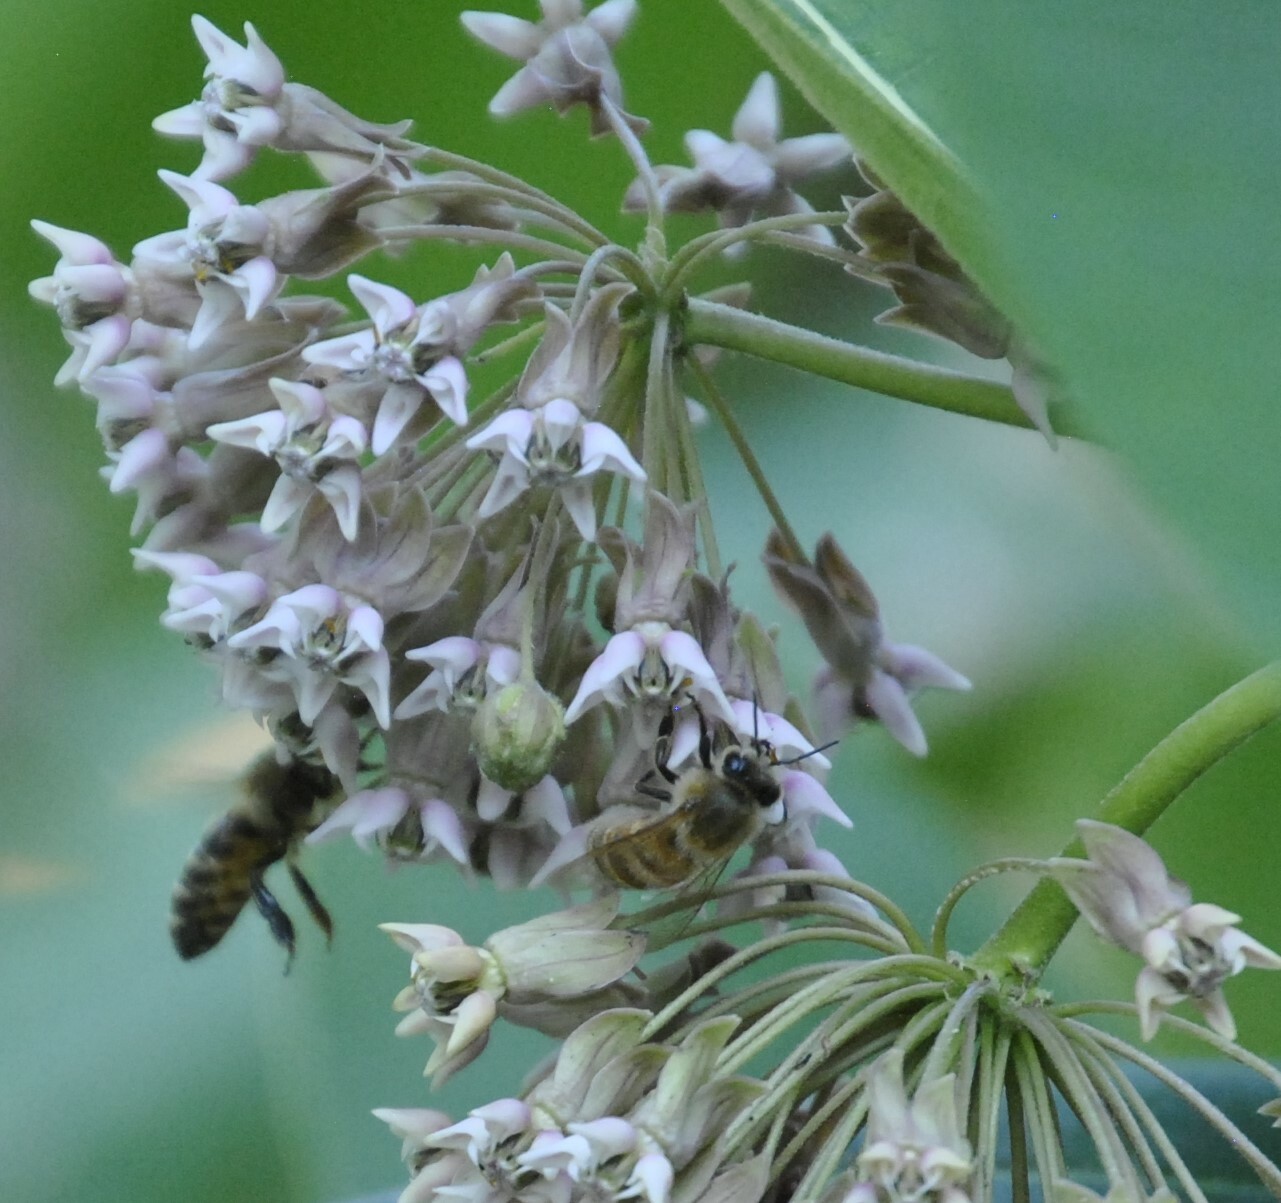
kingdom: Animalia
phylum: Arthropoda
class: Insecta
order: Hymenoptera
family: Apidae
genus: Apis
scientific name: Apis mellifera
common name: Honey bee
